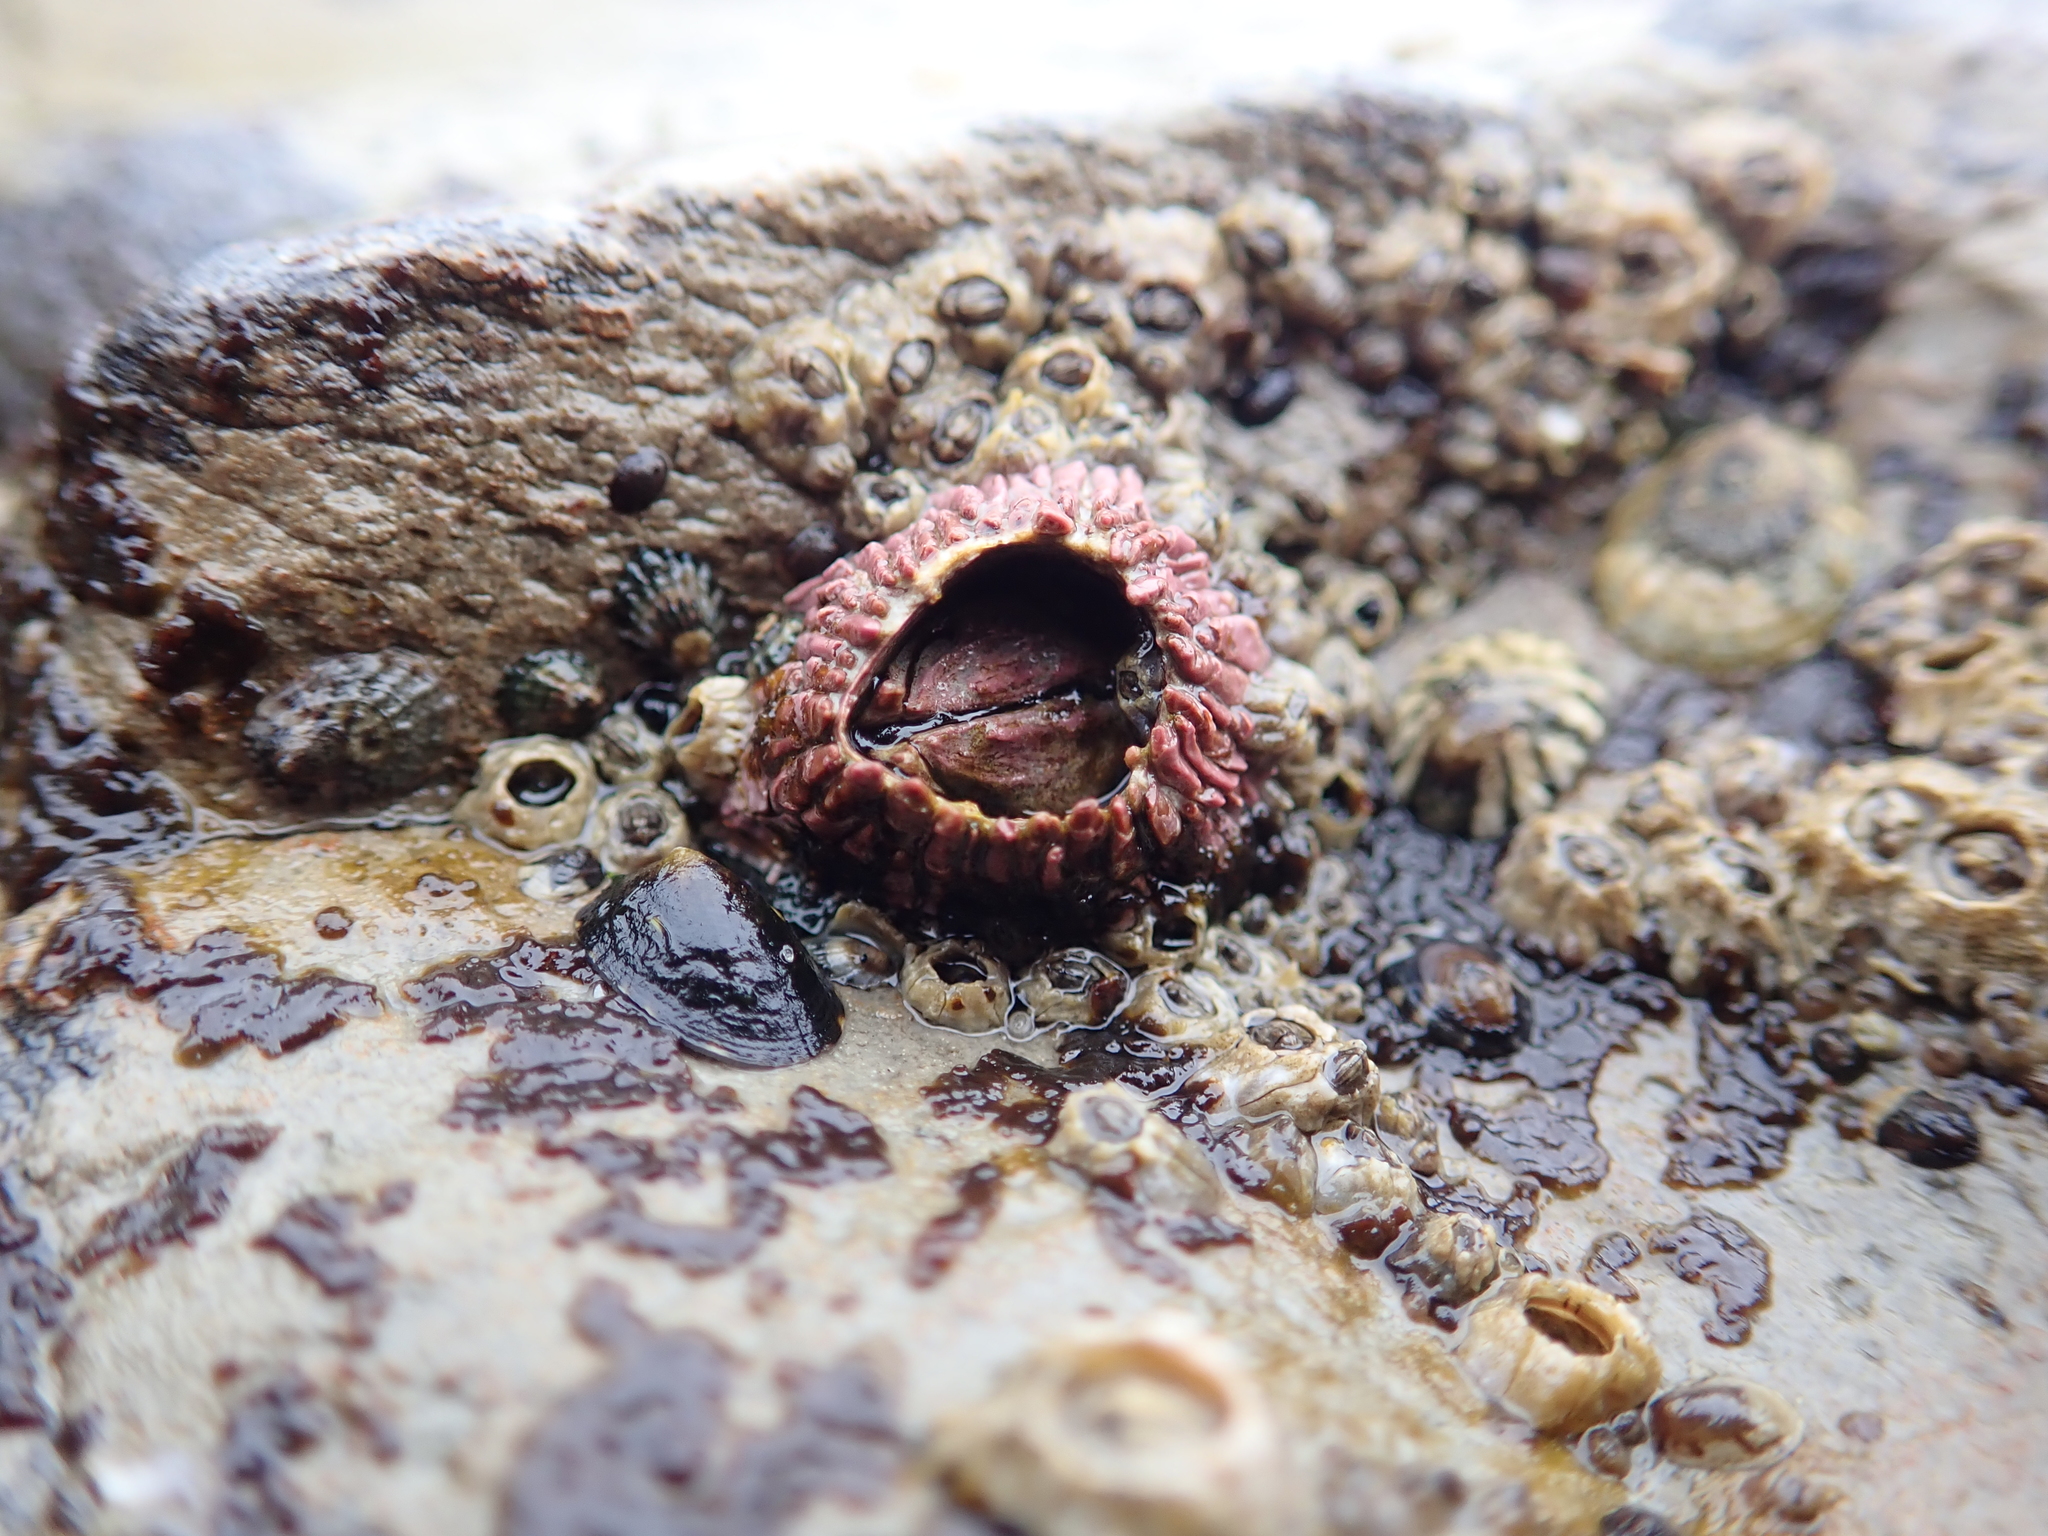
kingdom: Animalia
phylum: Arthropoda
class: Maxillopoda
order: Sessilia
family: Tetraclitidae
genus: Tetraclita
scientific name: Tetraclita rubescens
